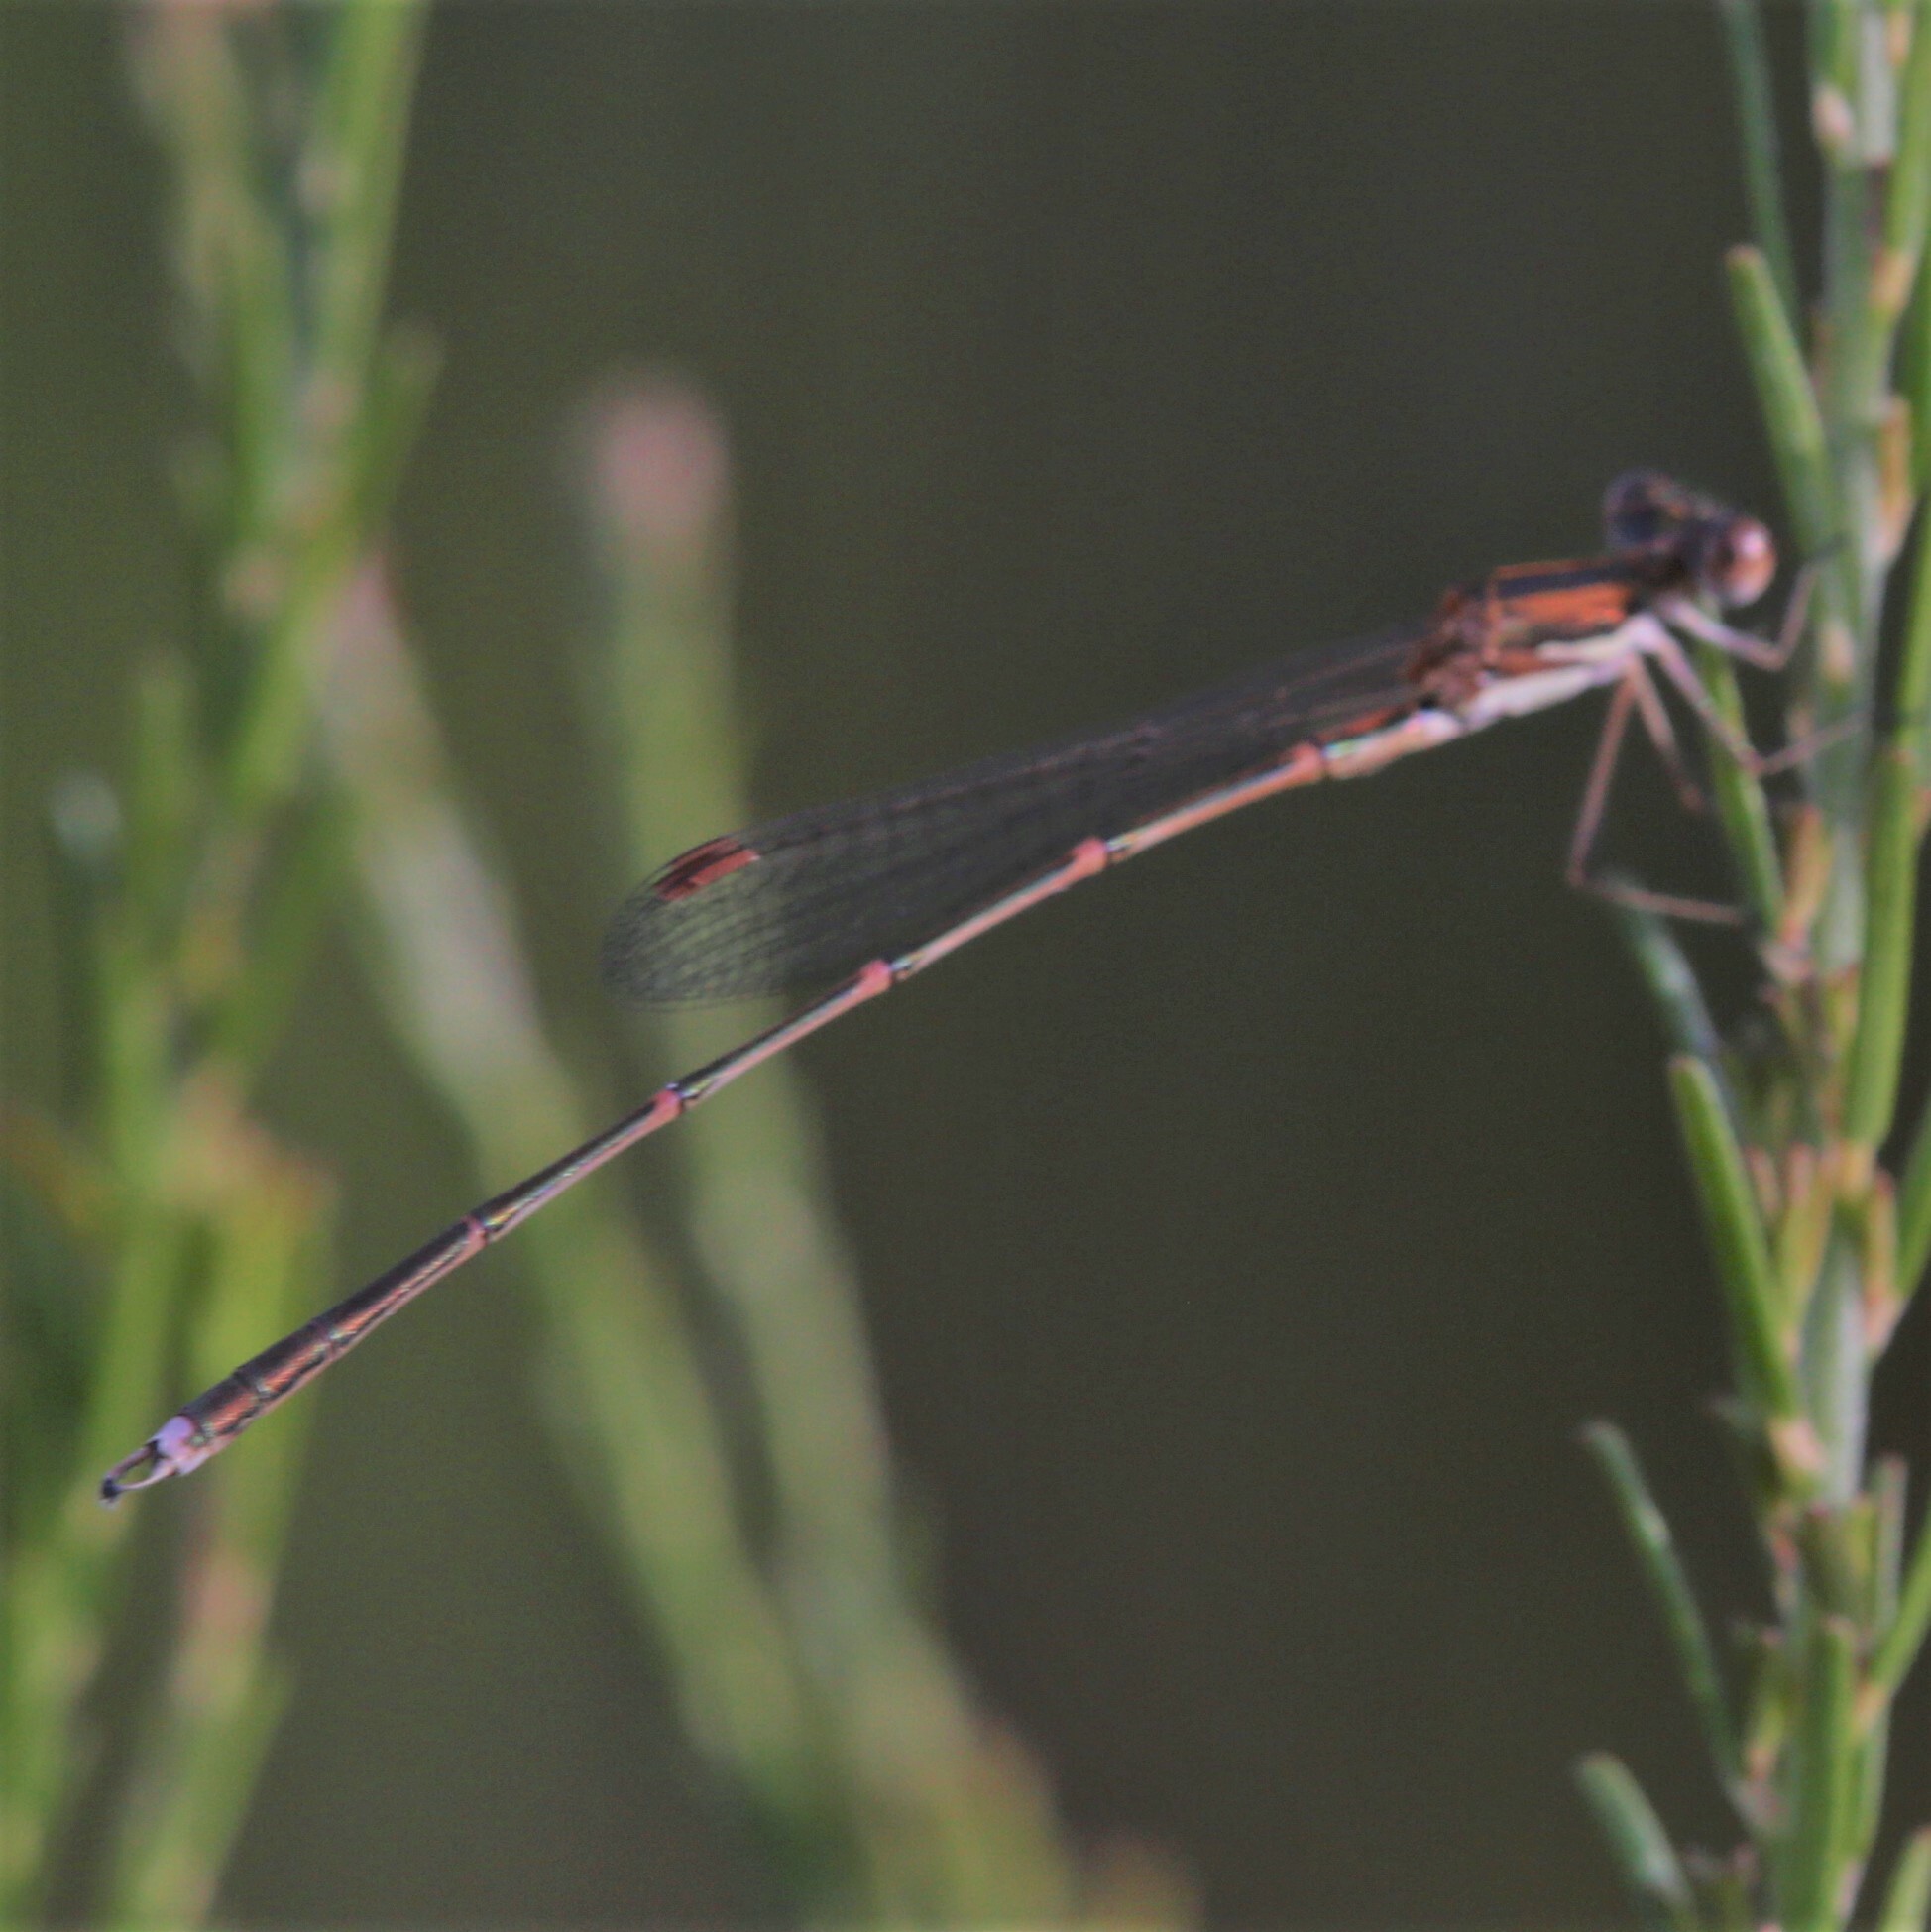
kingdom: Animalia
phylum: Arthropoda
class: Insecta
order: Odonata
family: Lestidae
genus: Austrolestes
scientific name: Austrolestes analis
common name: Slender ringtail
